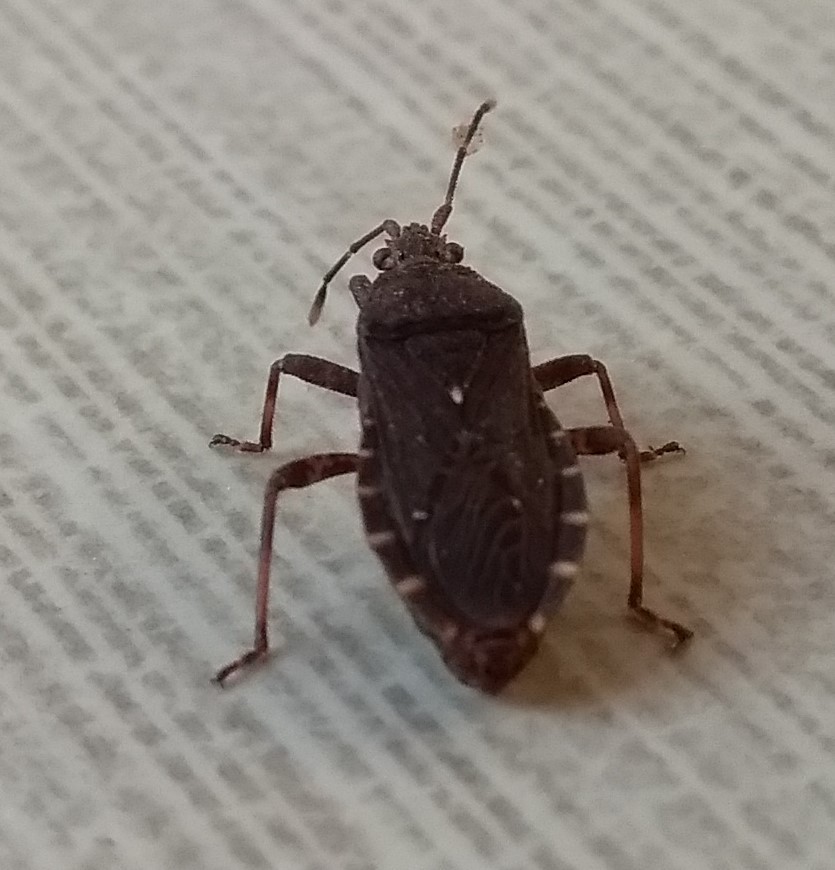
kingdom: Animalia
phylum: Arthropoda
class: Insecta
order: Hemiptera
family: Coreidae
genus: Acantholybas
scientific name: Acantholybas brunneus
